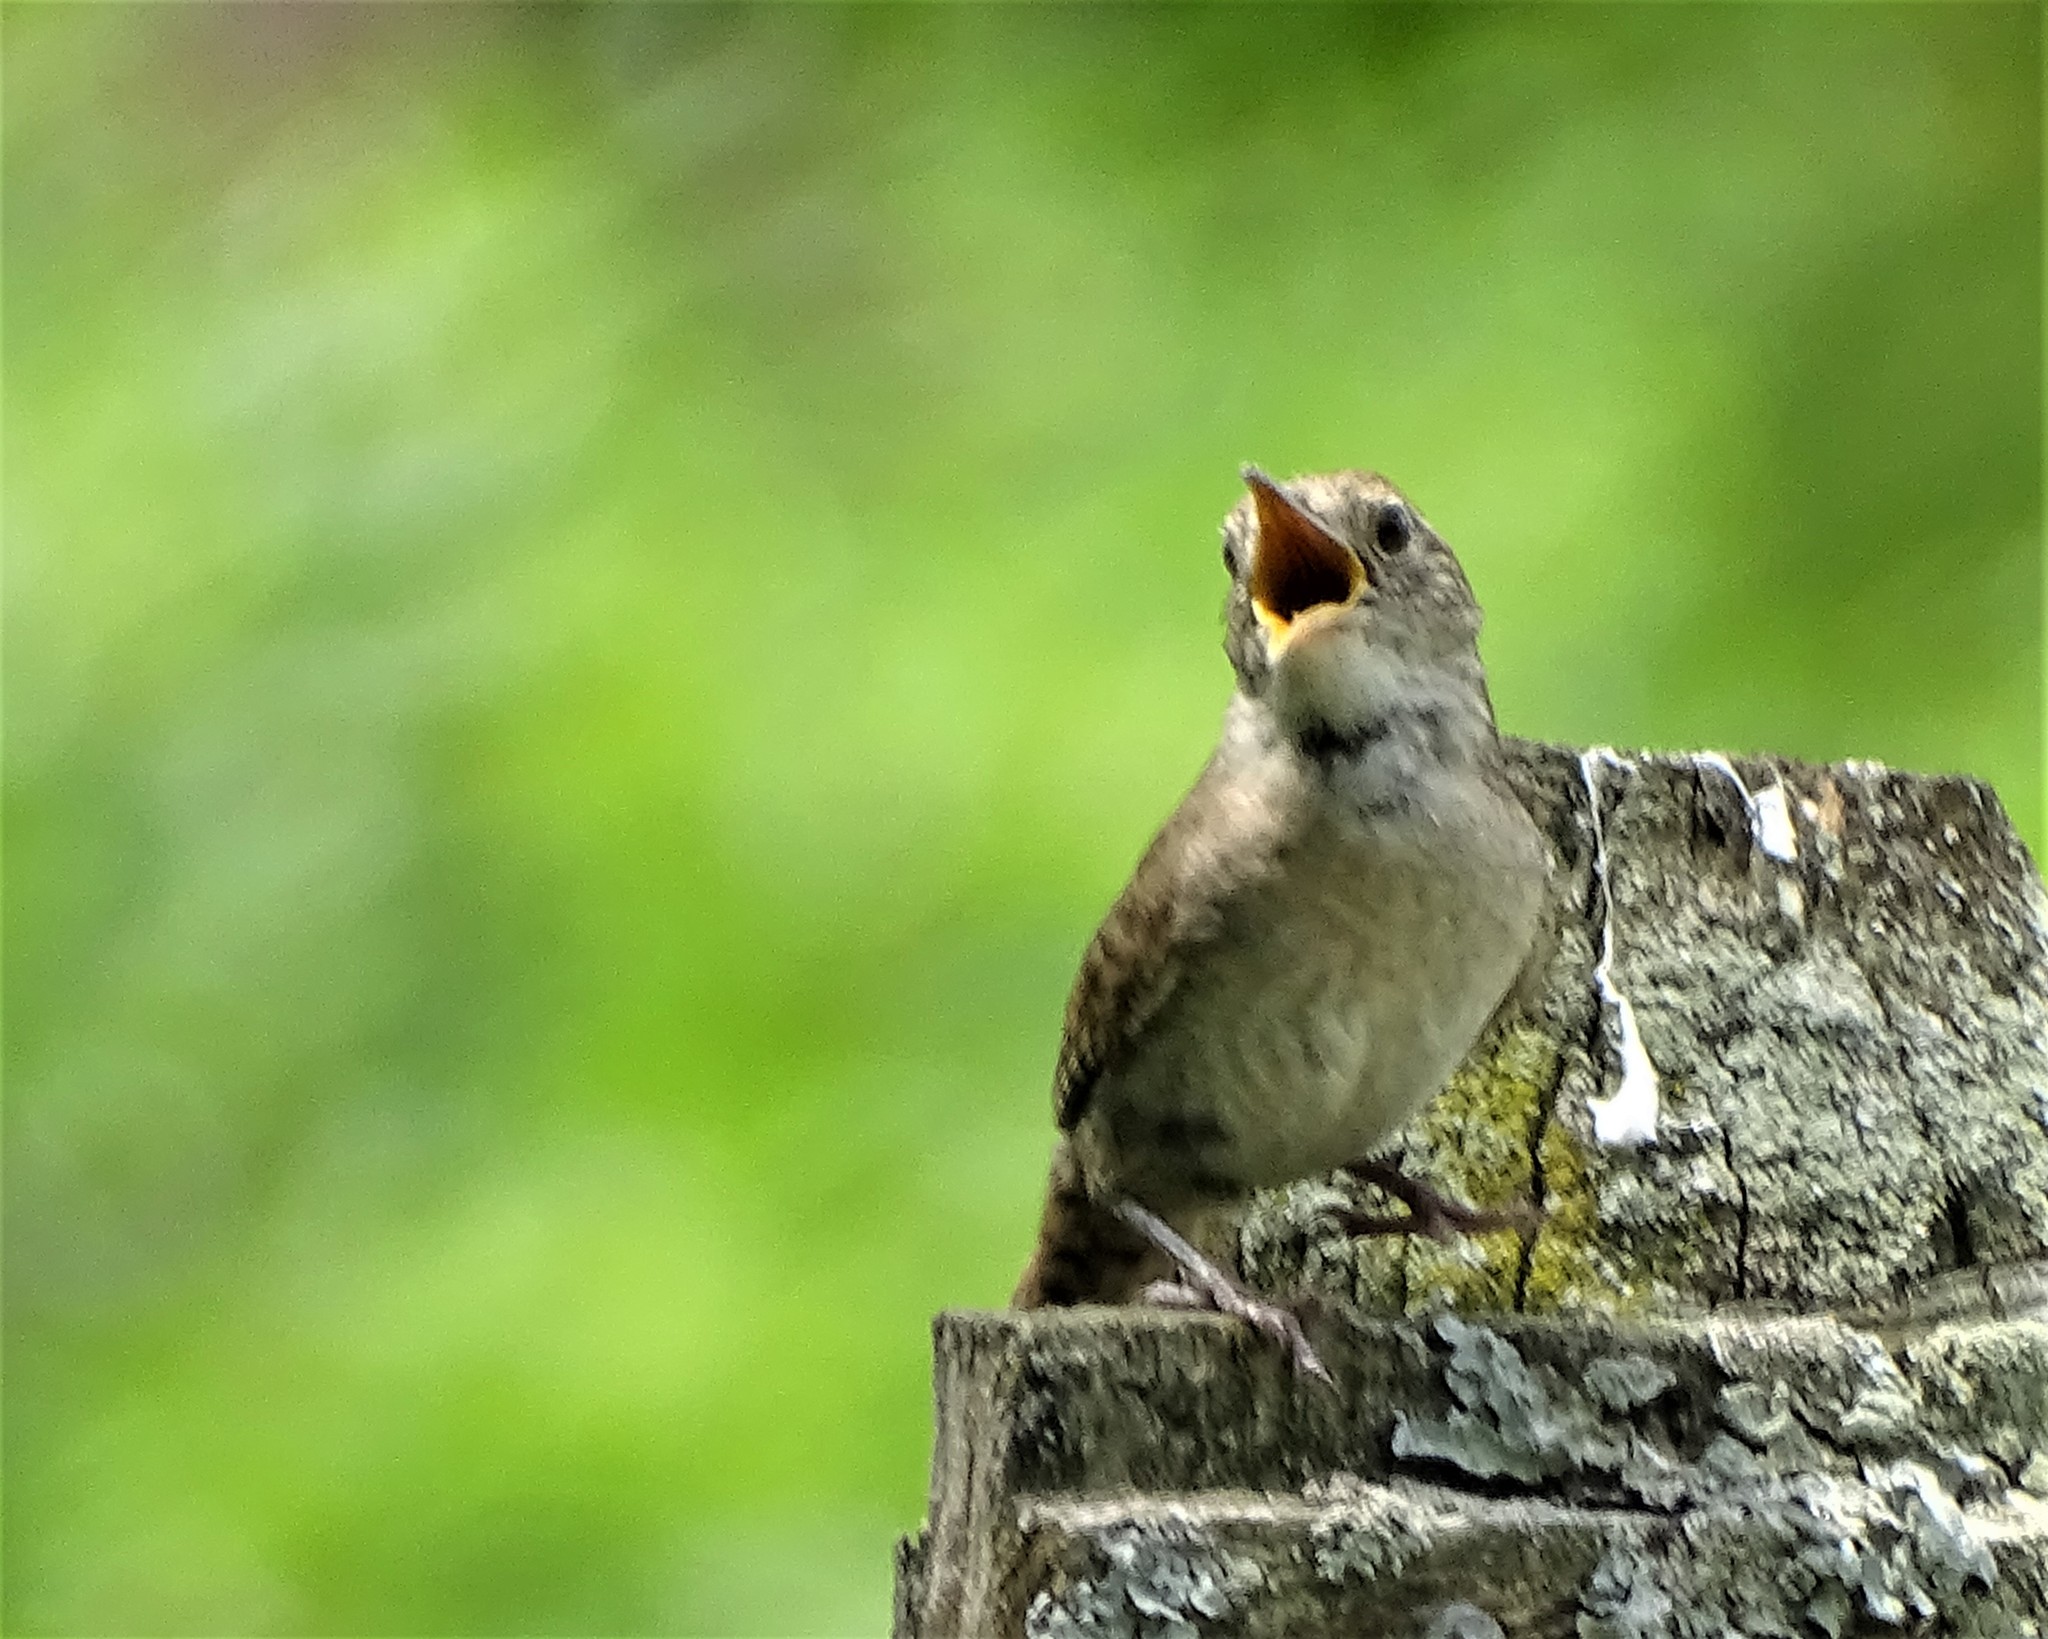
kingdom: Animalia
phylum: Chordata
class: Aves
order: Passeriformes
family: Troglodytidae
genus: Troglodytes
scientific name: Troglodytes aedon
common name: House wren
